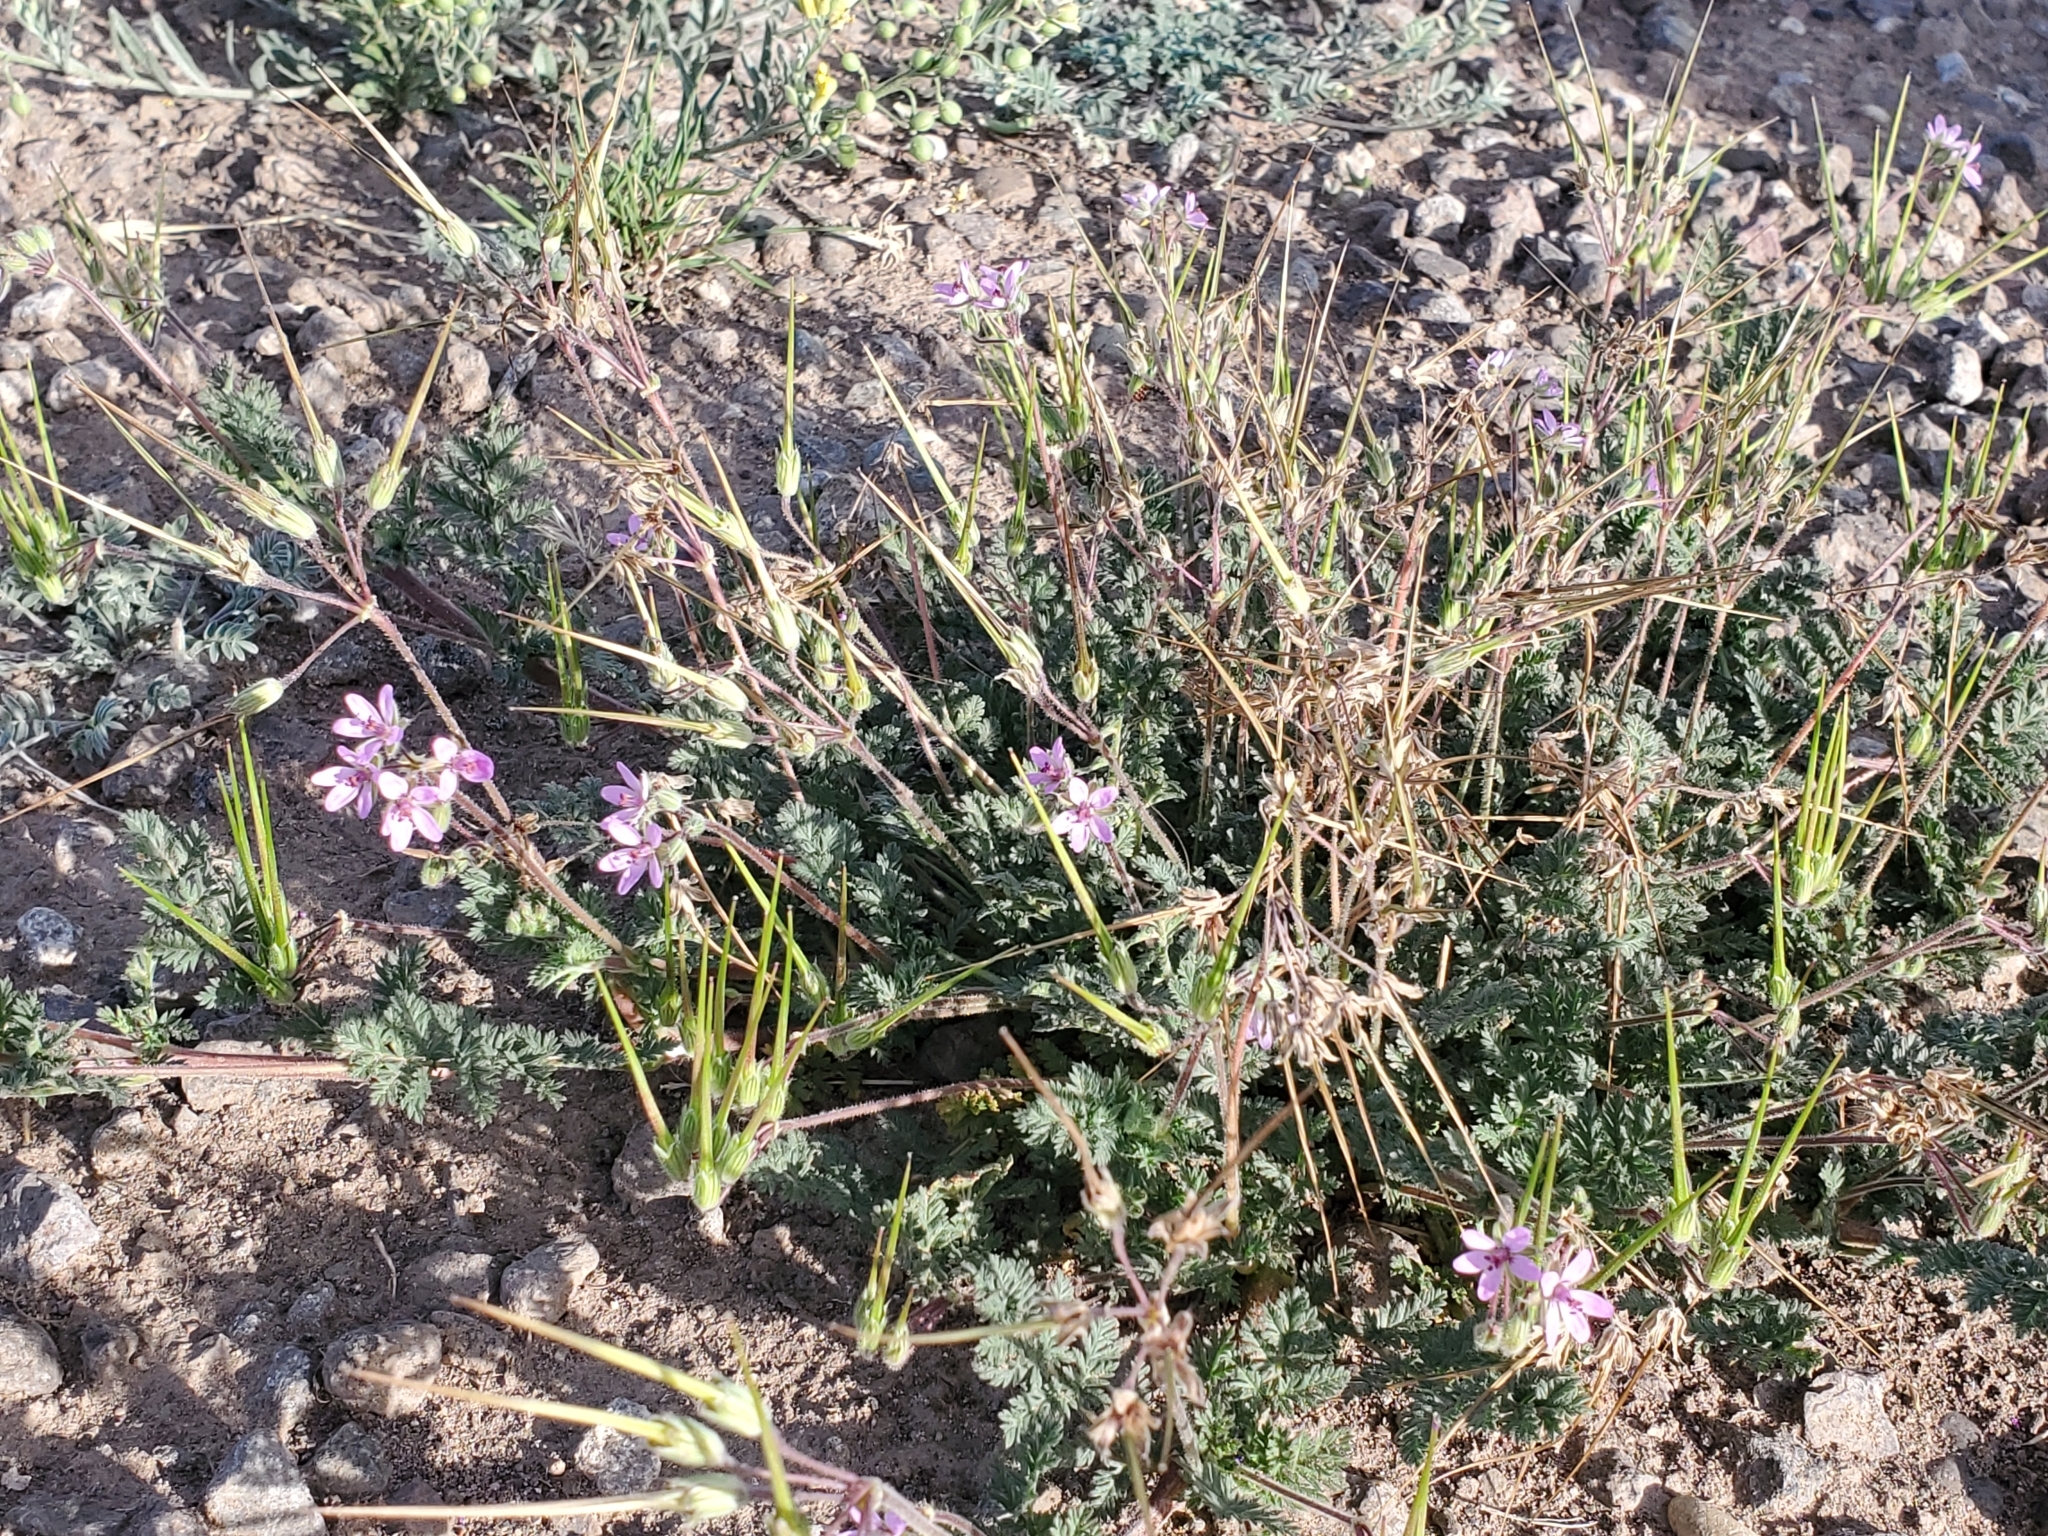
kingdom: Plantae
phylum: Tracheophyta
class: Magnoliopsida
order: Geraniales
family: Geraniaceae
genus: Erodium
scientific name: Erodium cicutarium
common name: Common stork's-bill
